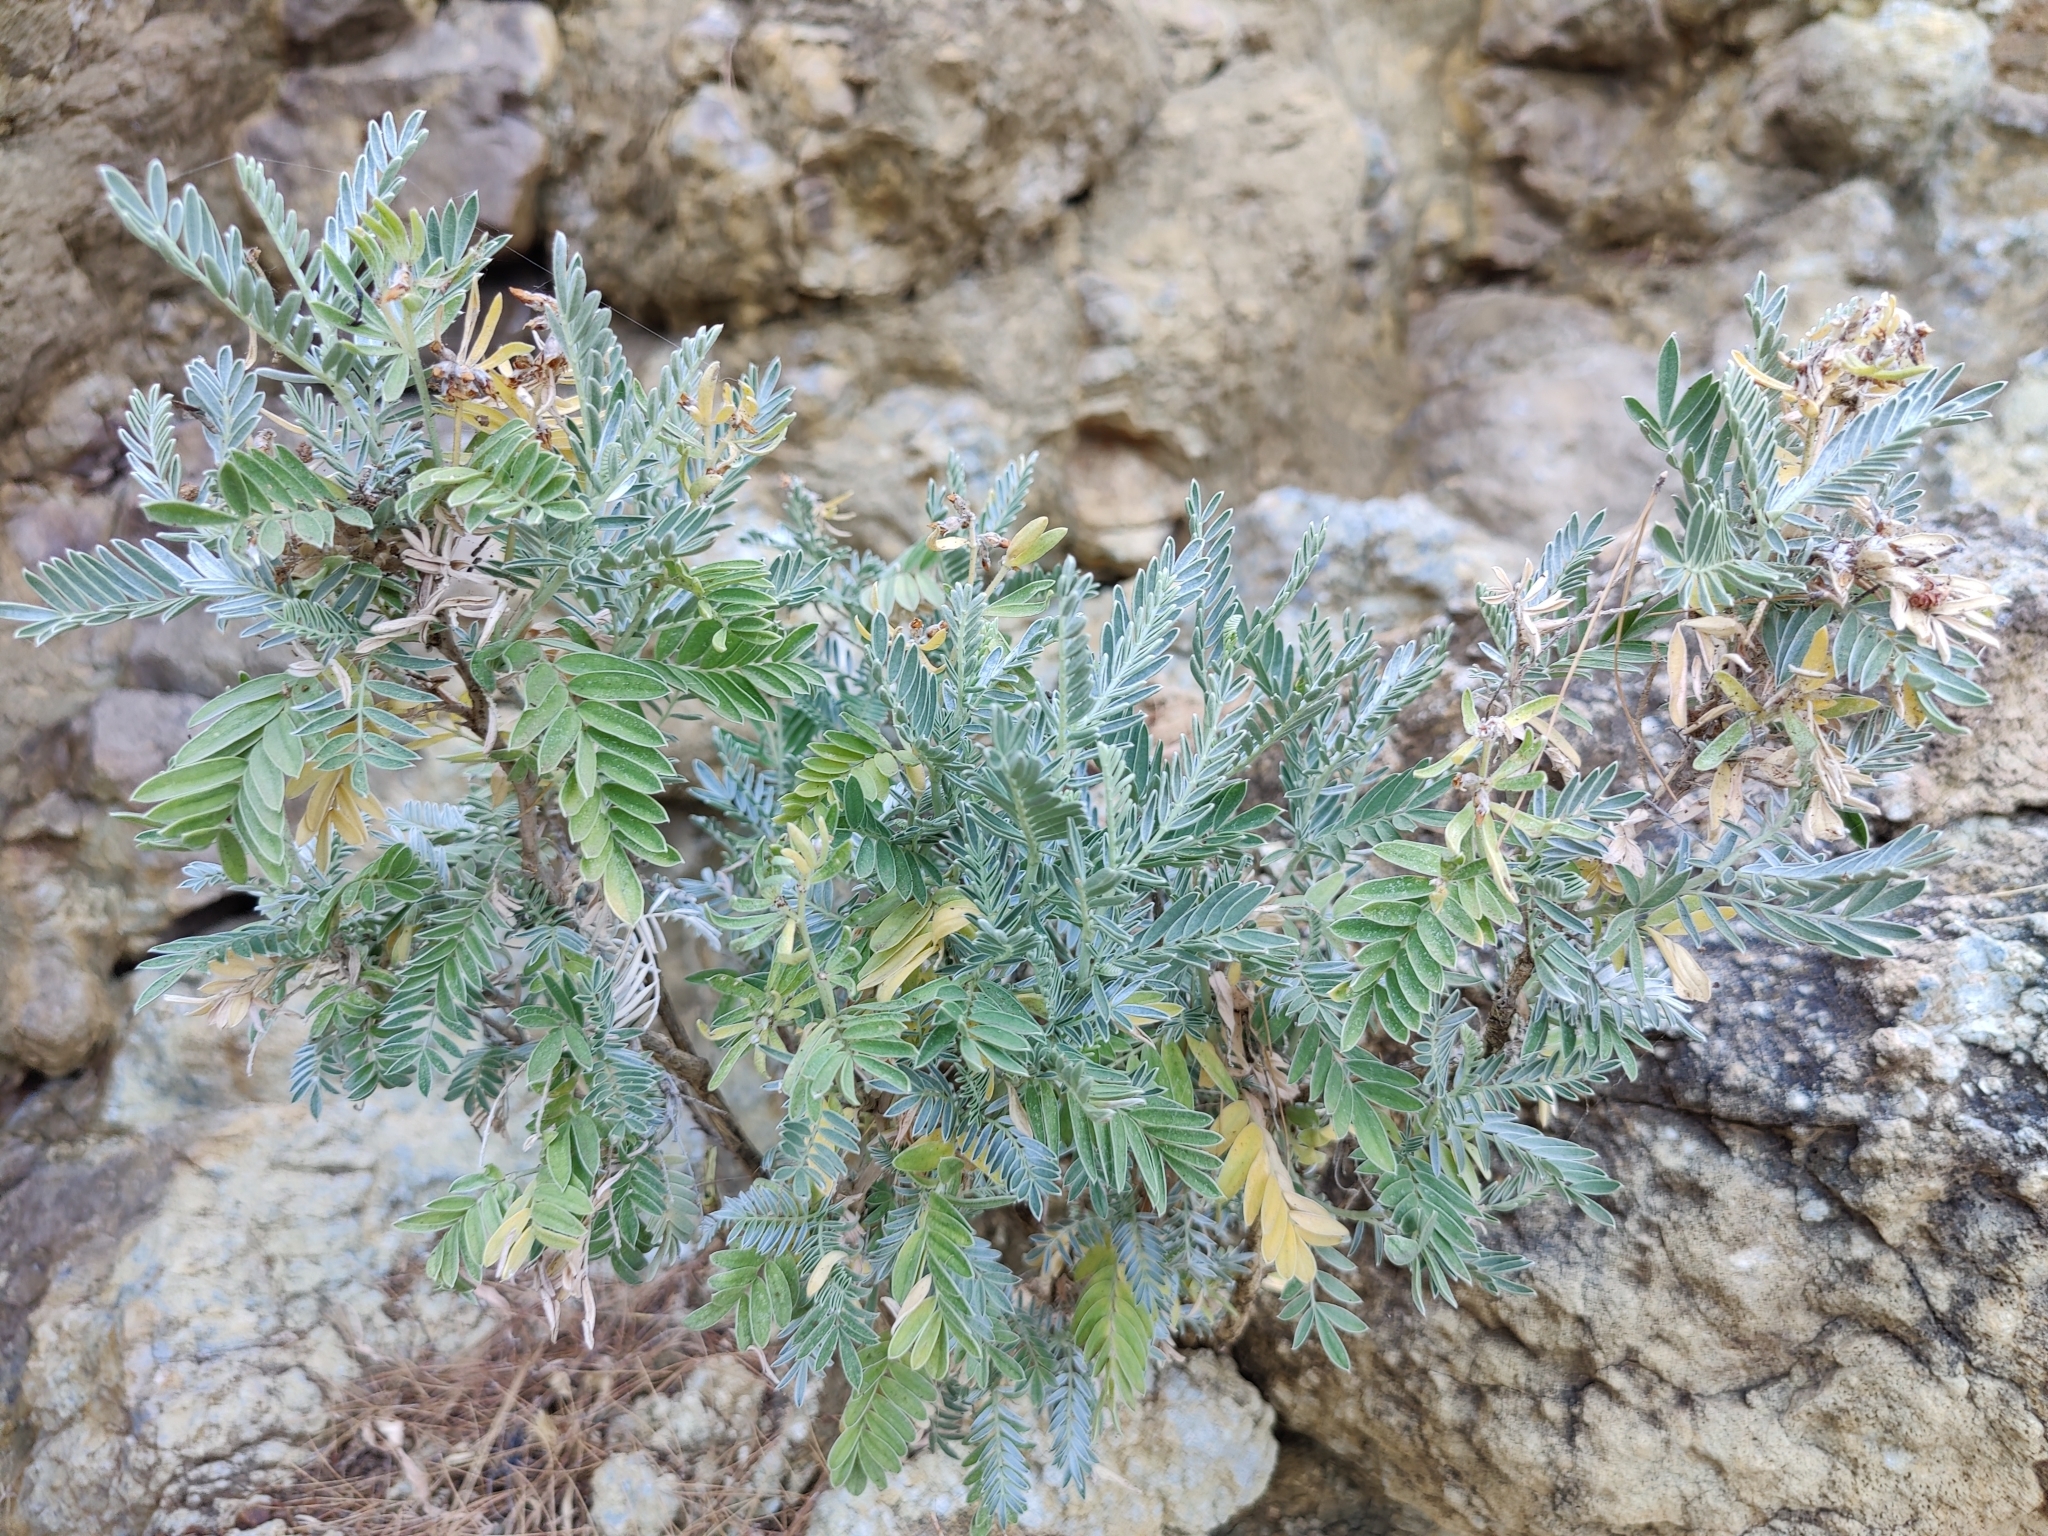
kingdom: Plantae
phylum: Tracheophyta
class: Magnoliopsida
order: Fabales
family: Fabaceae
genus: Anthyllis
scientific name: Anthyllis barba-jovis
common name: Jupiter's-beard
